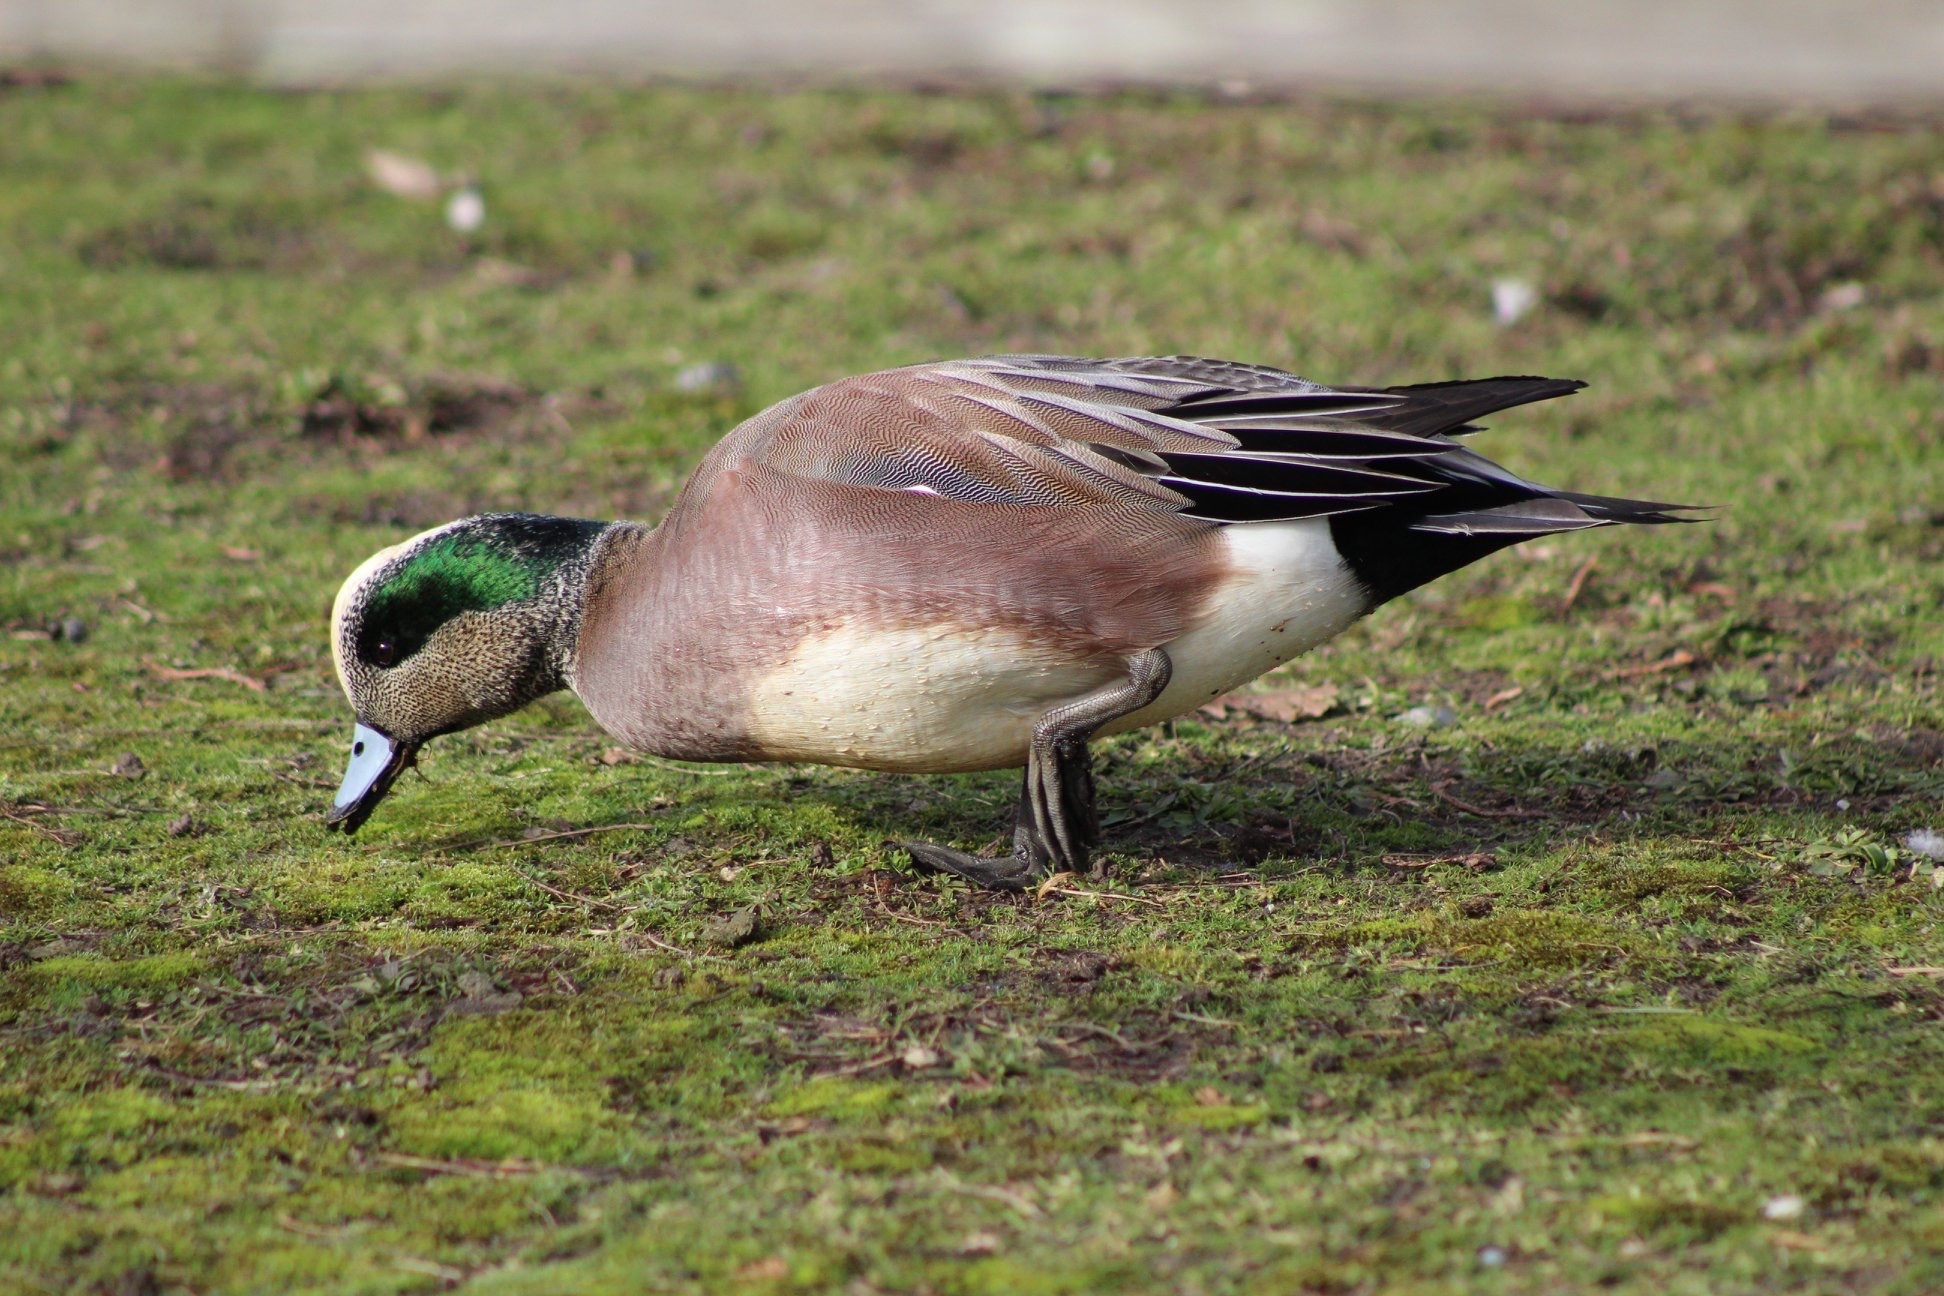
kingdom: Animalia
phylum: Chordata
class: Aves
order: Anseriformes
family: Anatidae
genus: Mareca
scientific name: Mareca americana
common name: American wigeon
